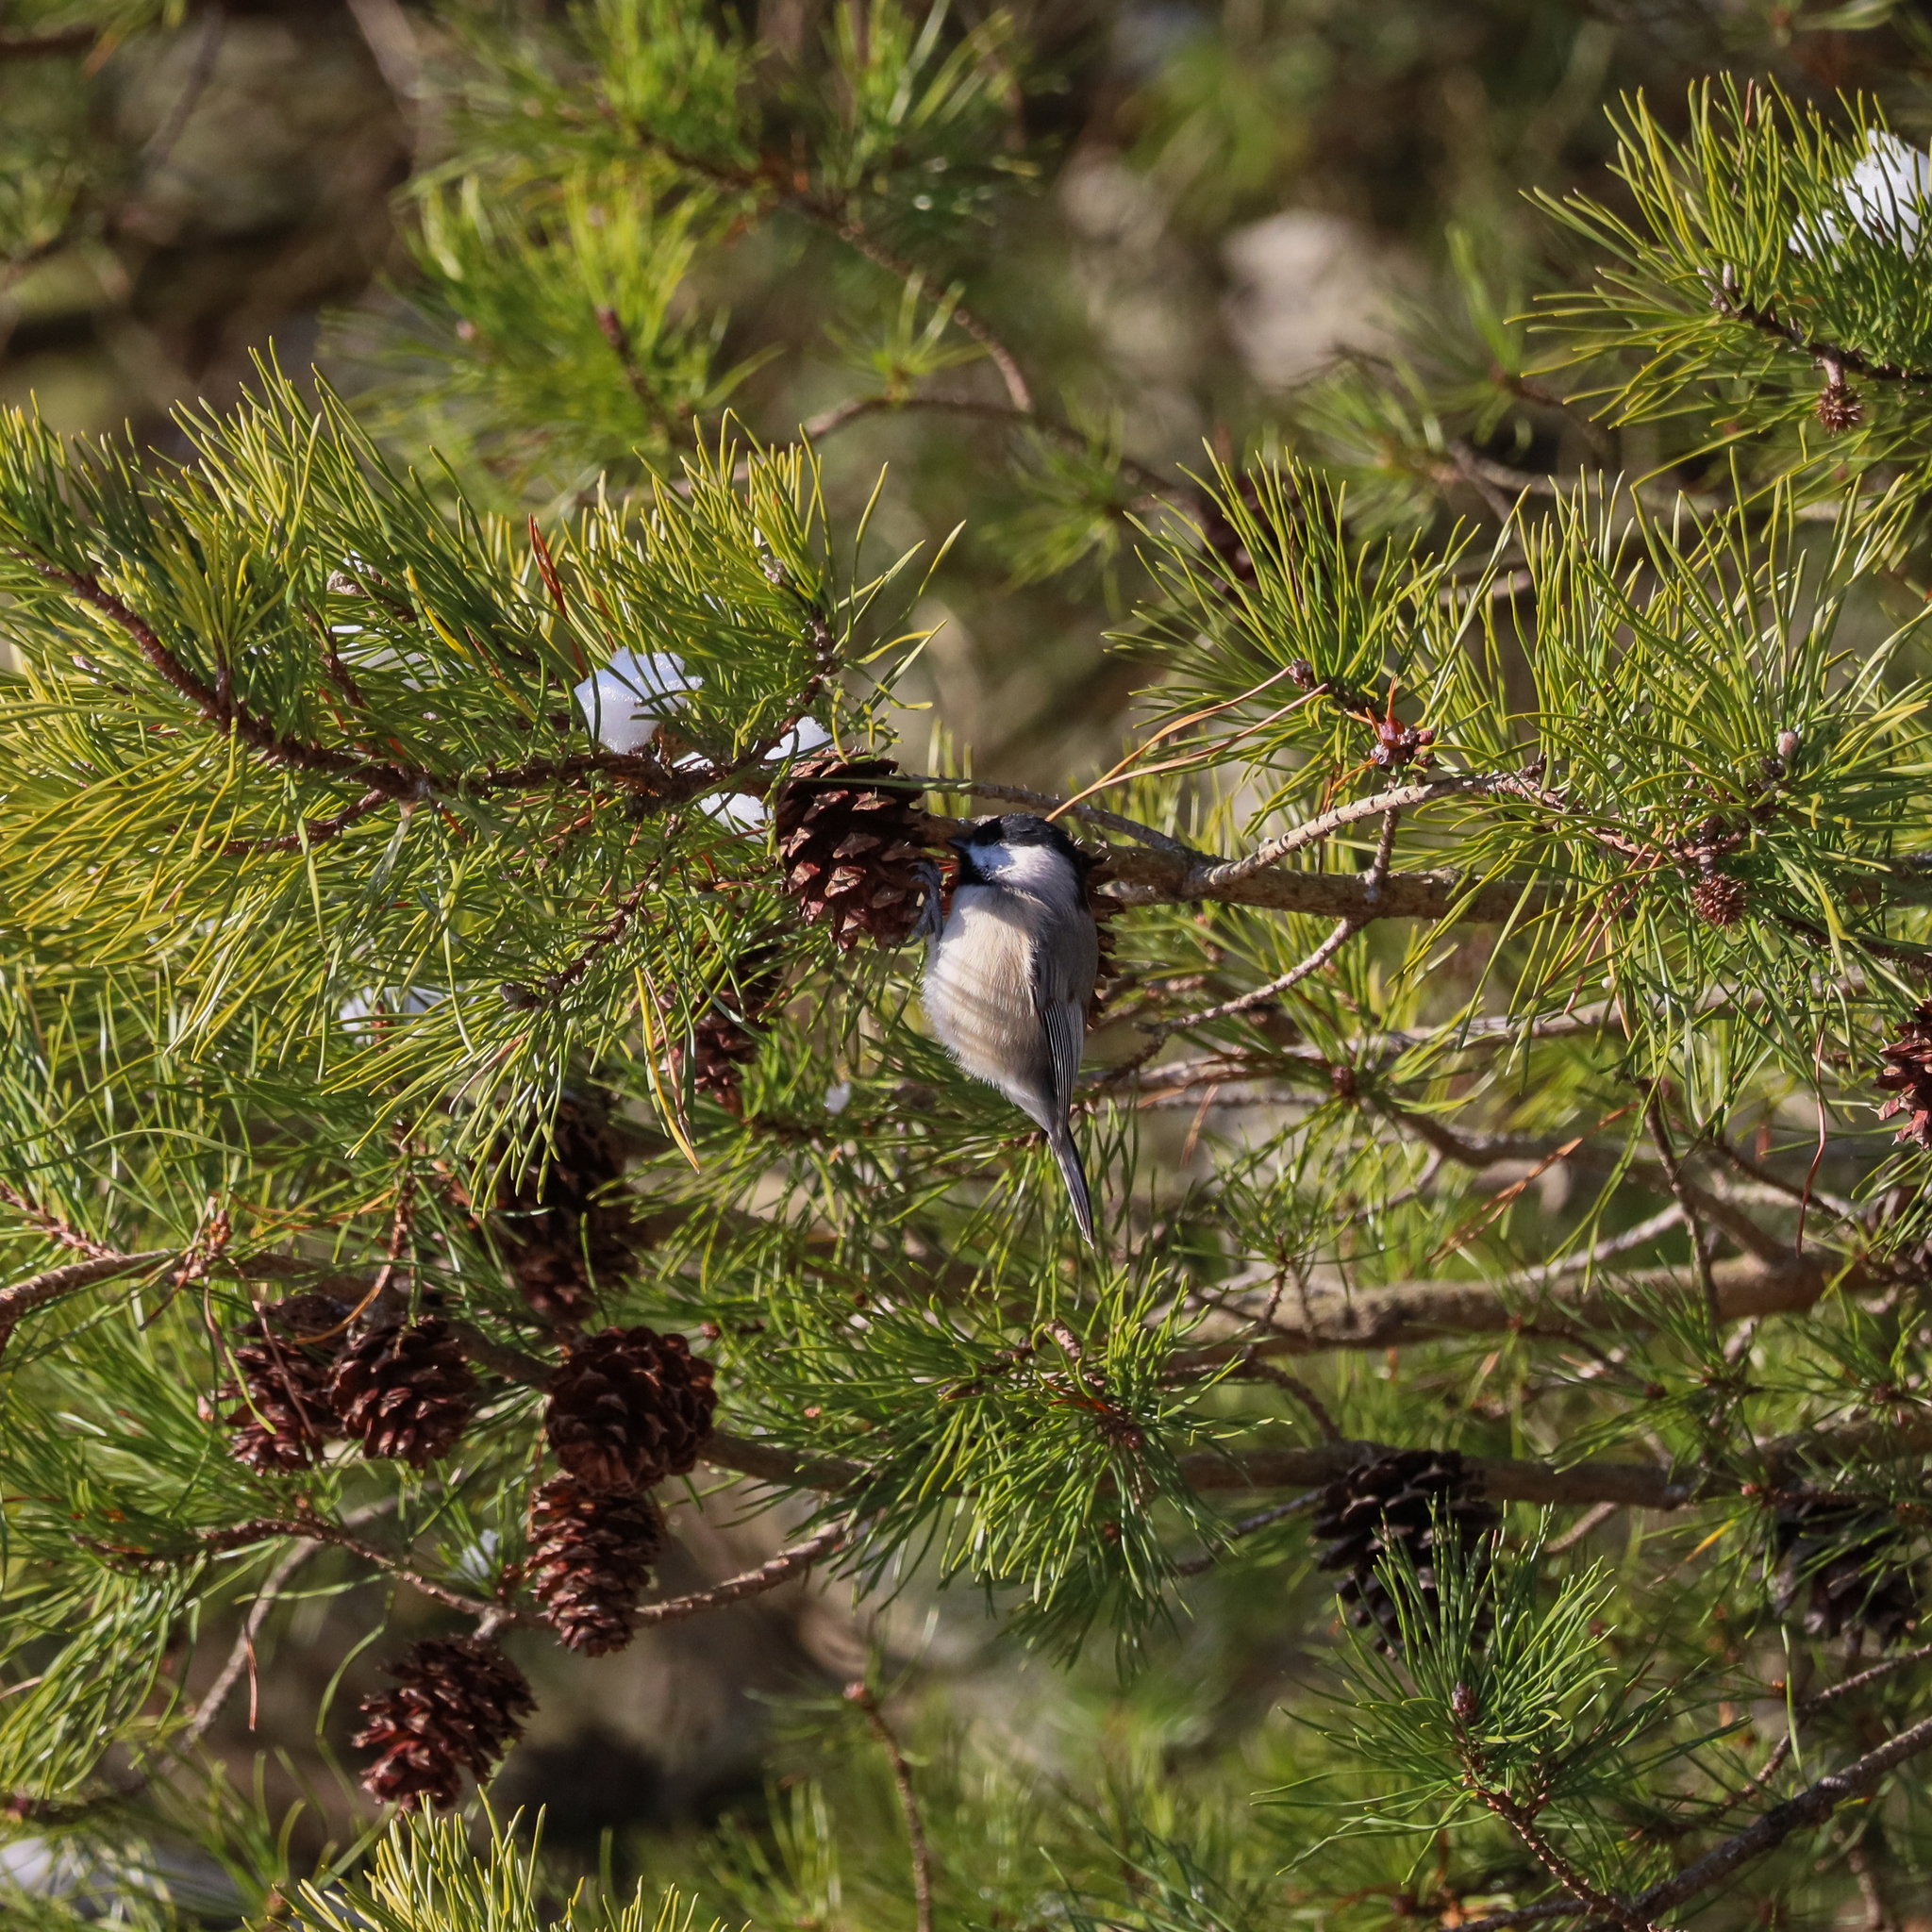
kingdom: Animalia
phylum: Chordata
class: Aves
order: Passeriformes
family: Paridae
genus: Poecile
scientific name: Poecile carolinensis
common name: Carolina chickadee
